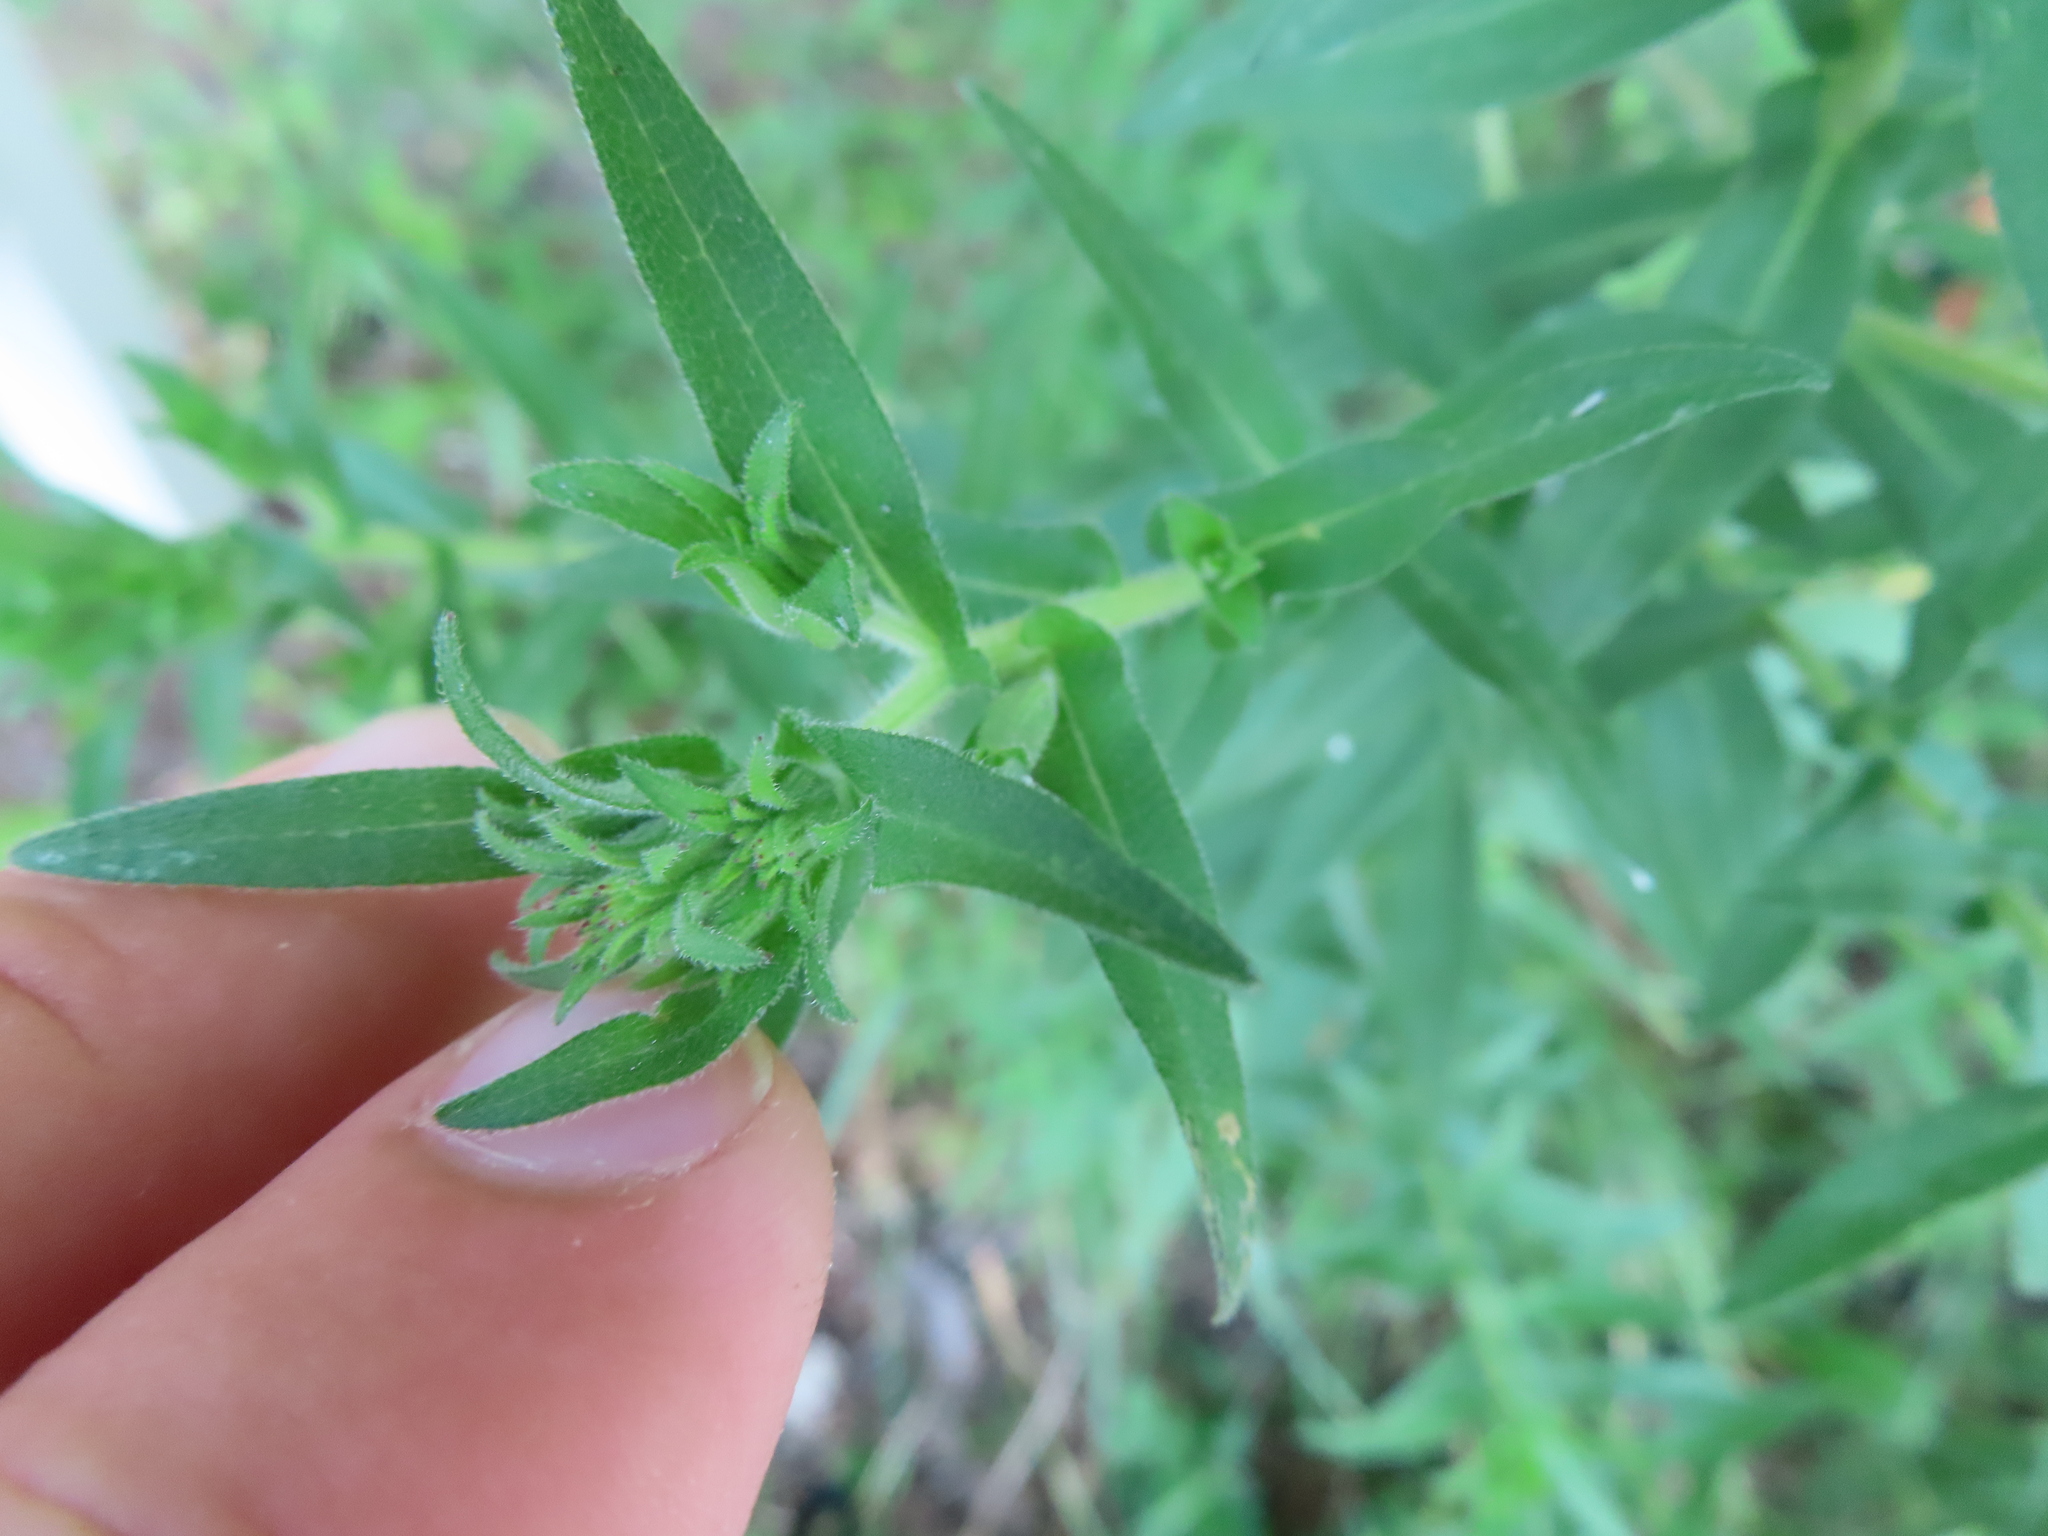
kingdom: Plantae
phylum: Tracheophyta
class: Magnoliopsida
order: Asterales
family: Asteraceae
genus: Symphyotrichum
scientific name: Symphyotrichum novae-angliae
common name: Michaelmas daisy
